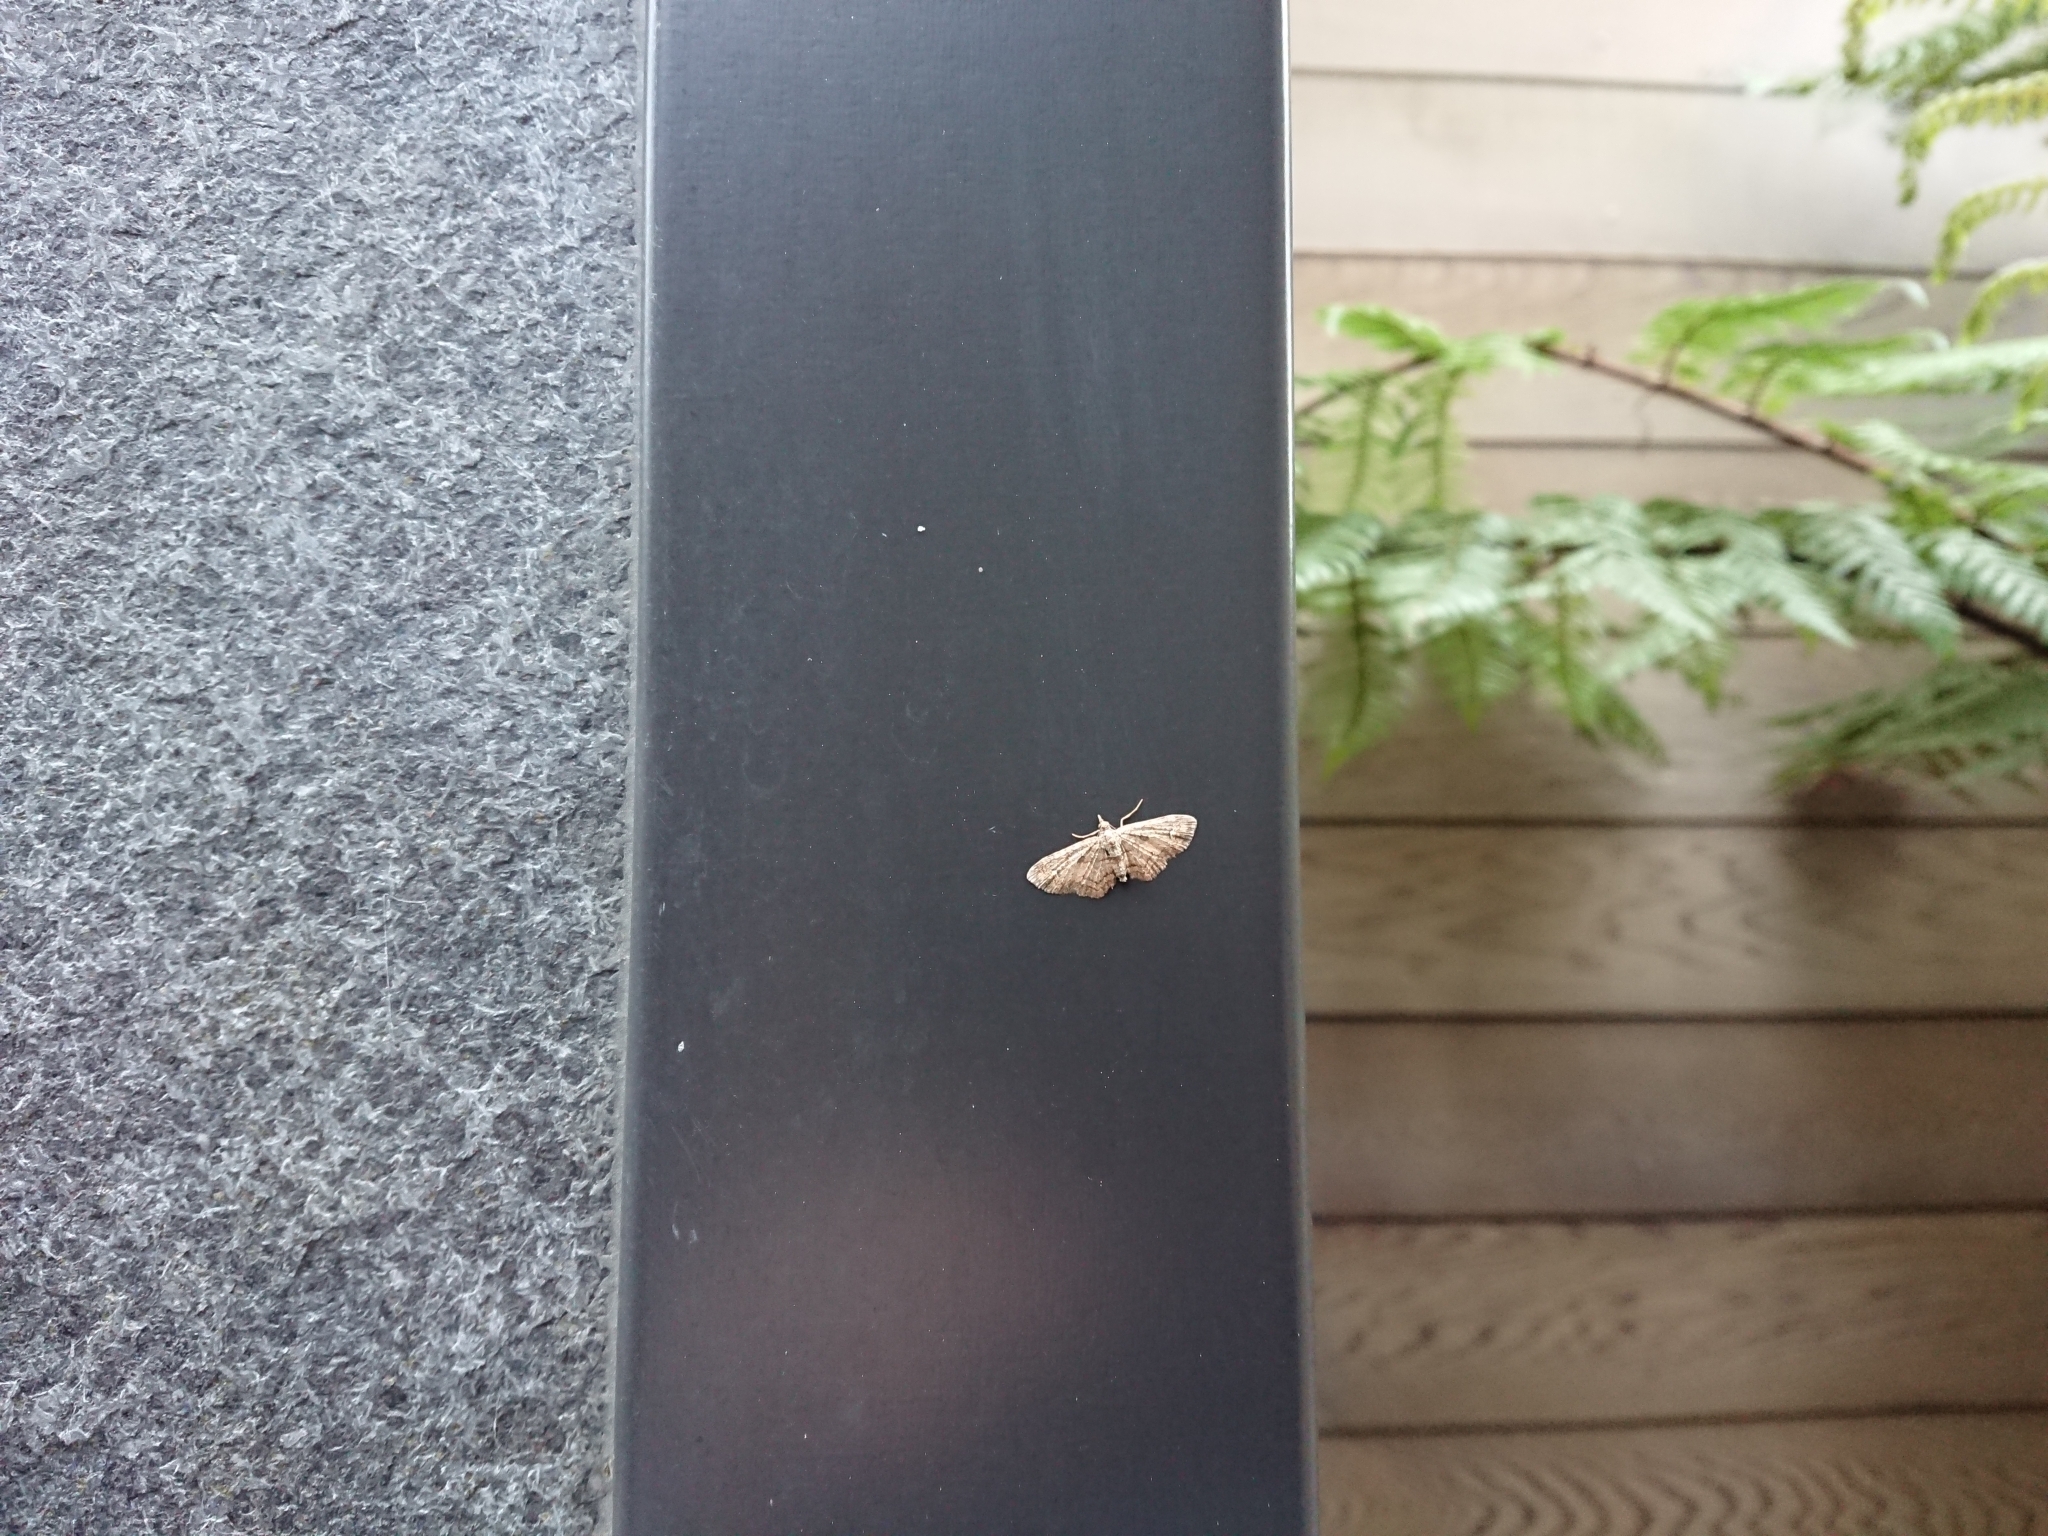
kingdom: Animalia
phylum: Arthropoda
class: Insecta
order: Lepidoptera
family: Geometridae
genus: Pasiphilodes
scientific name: Pasiphilodes testulata
